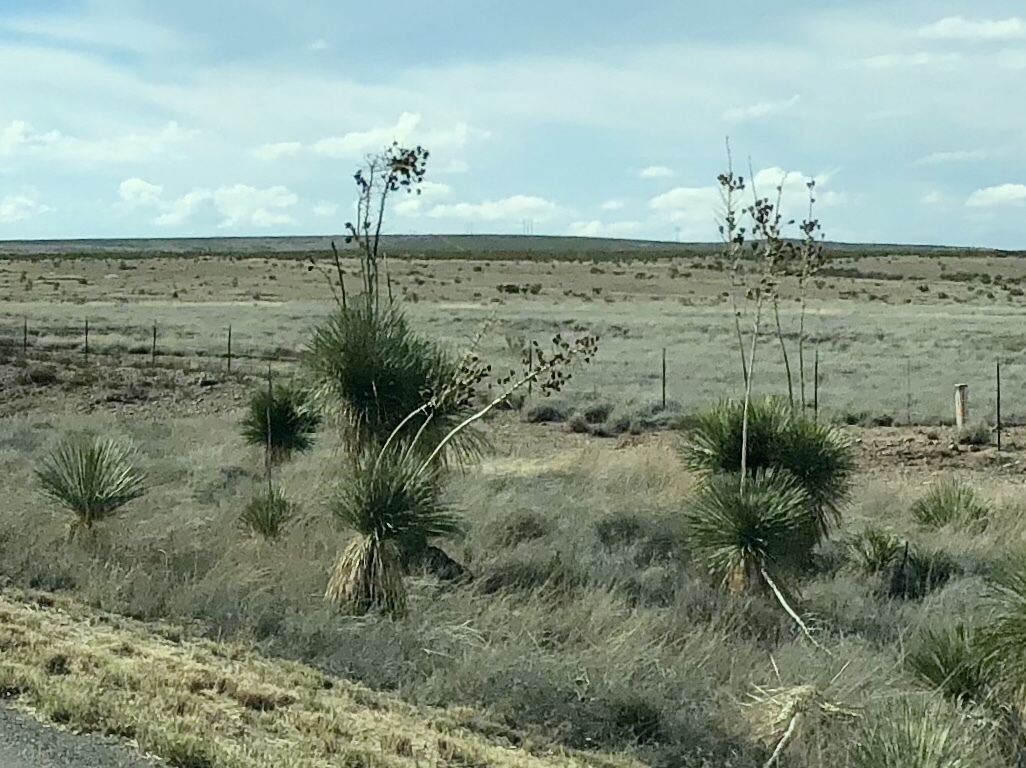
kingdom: Plantae
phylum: Tracheophyta
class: Liliopsida
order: Asparagales
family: Asparagaceae
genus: Yucca
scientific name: Yucca elata
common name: Palmella
